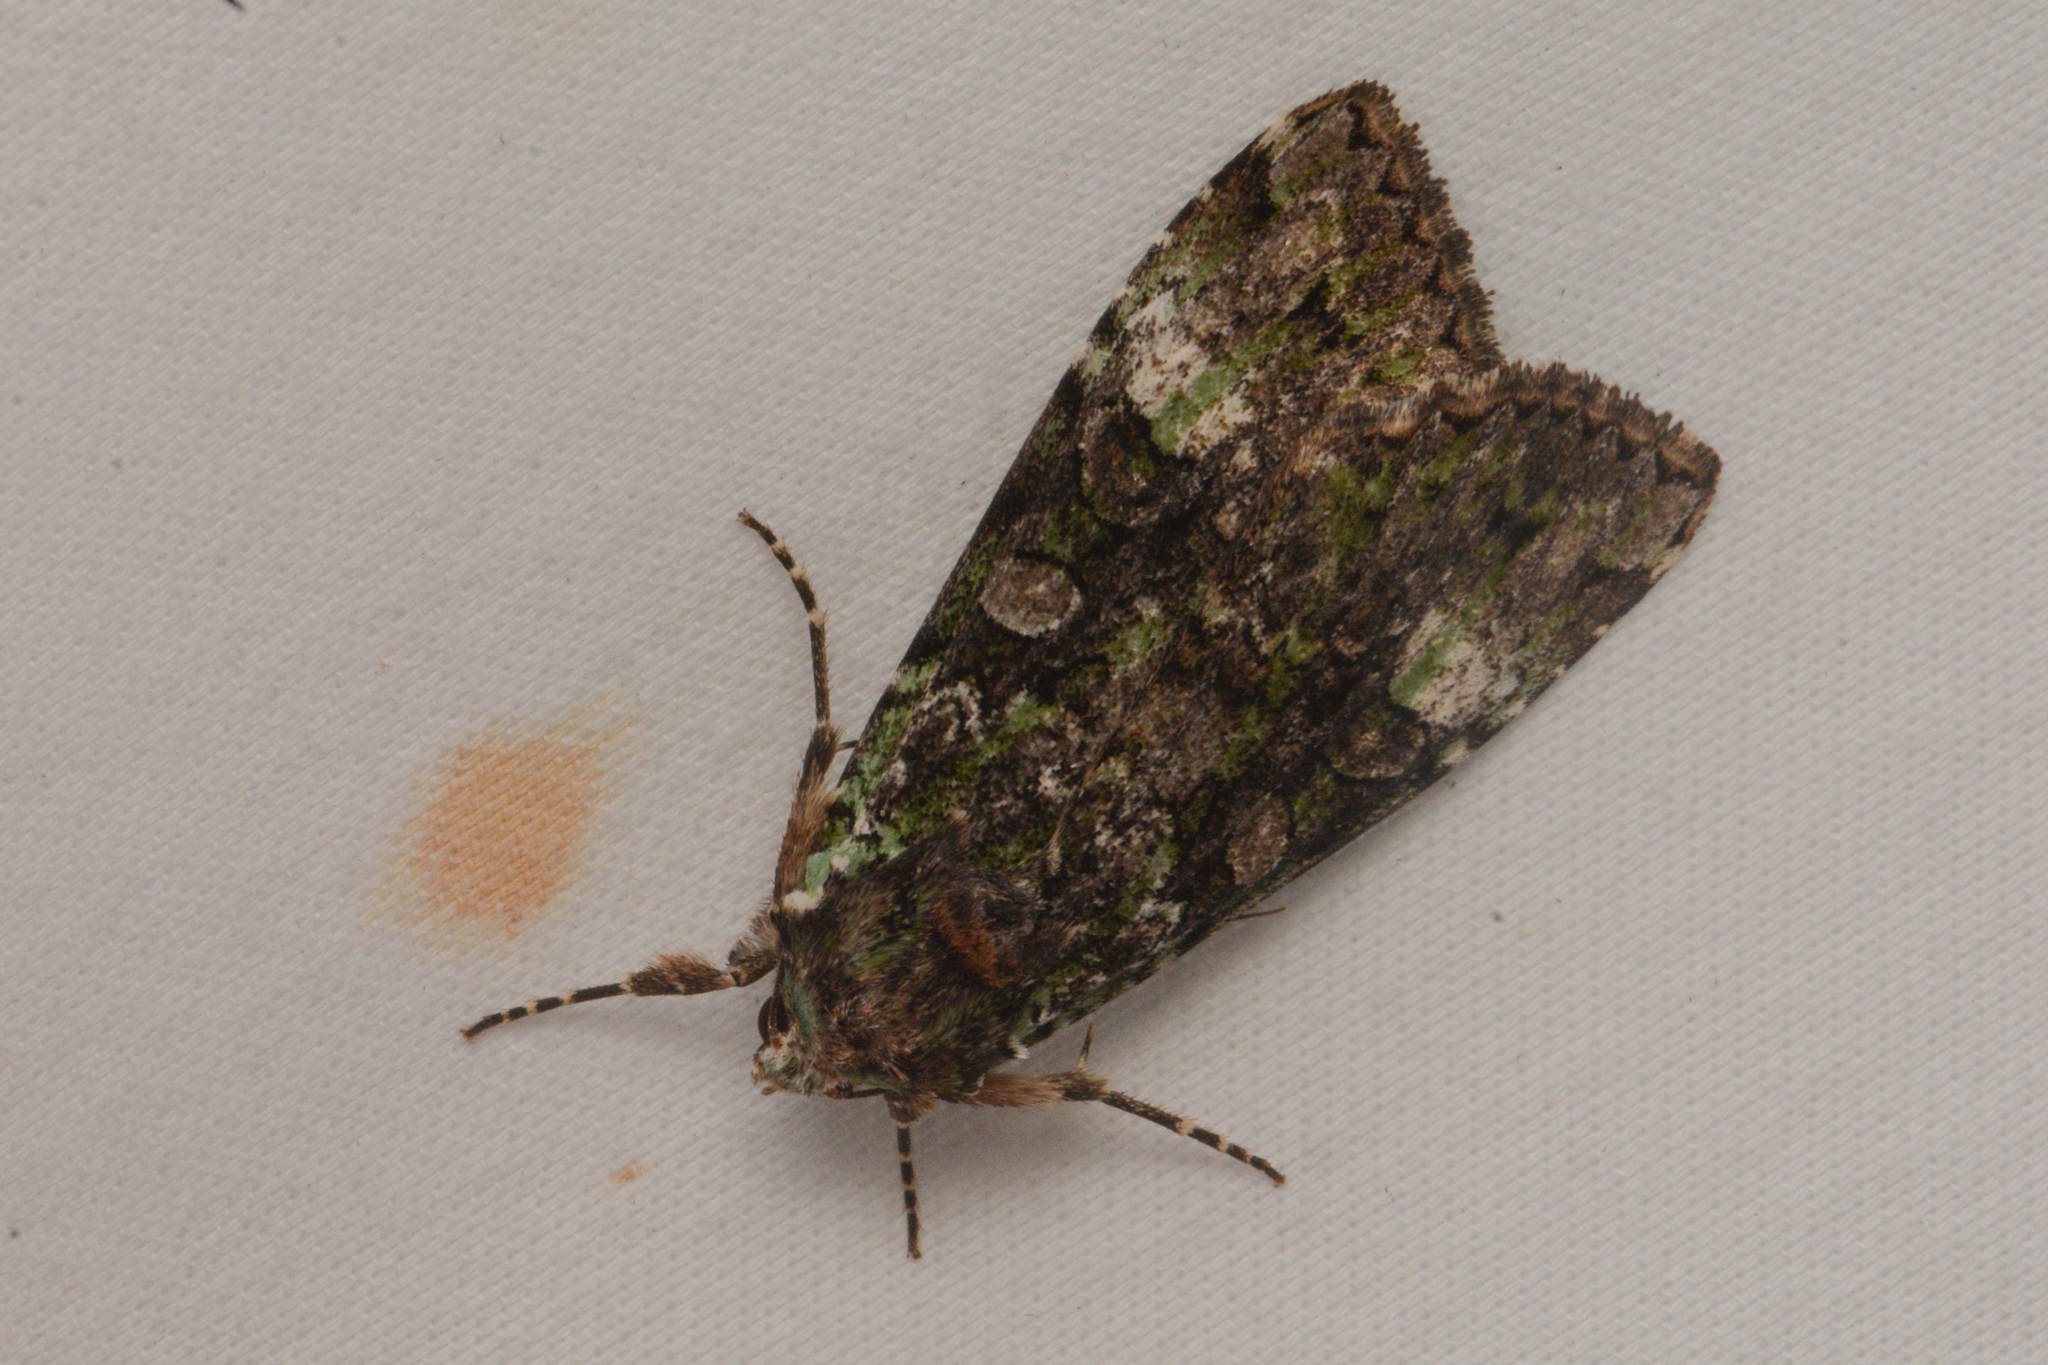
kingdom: Animalia
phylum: Arthropoda
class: Insecta
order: Lepidoptera
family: Noctuidae
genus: Anaplectoides
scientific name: Anaplectoides prasina
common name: Green arches
